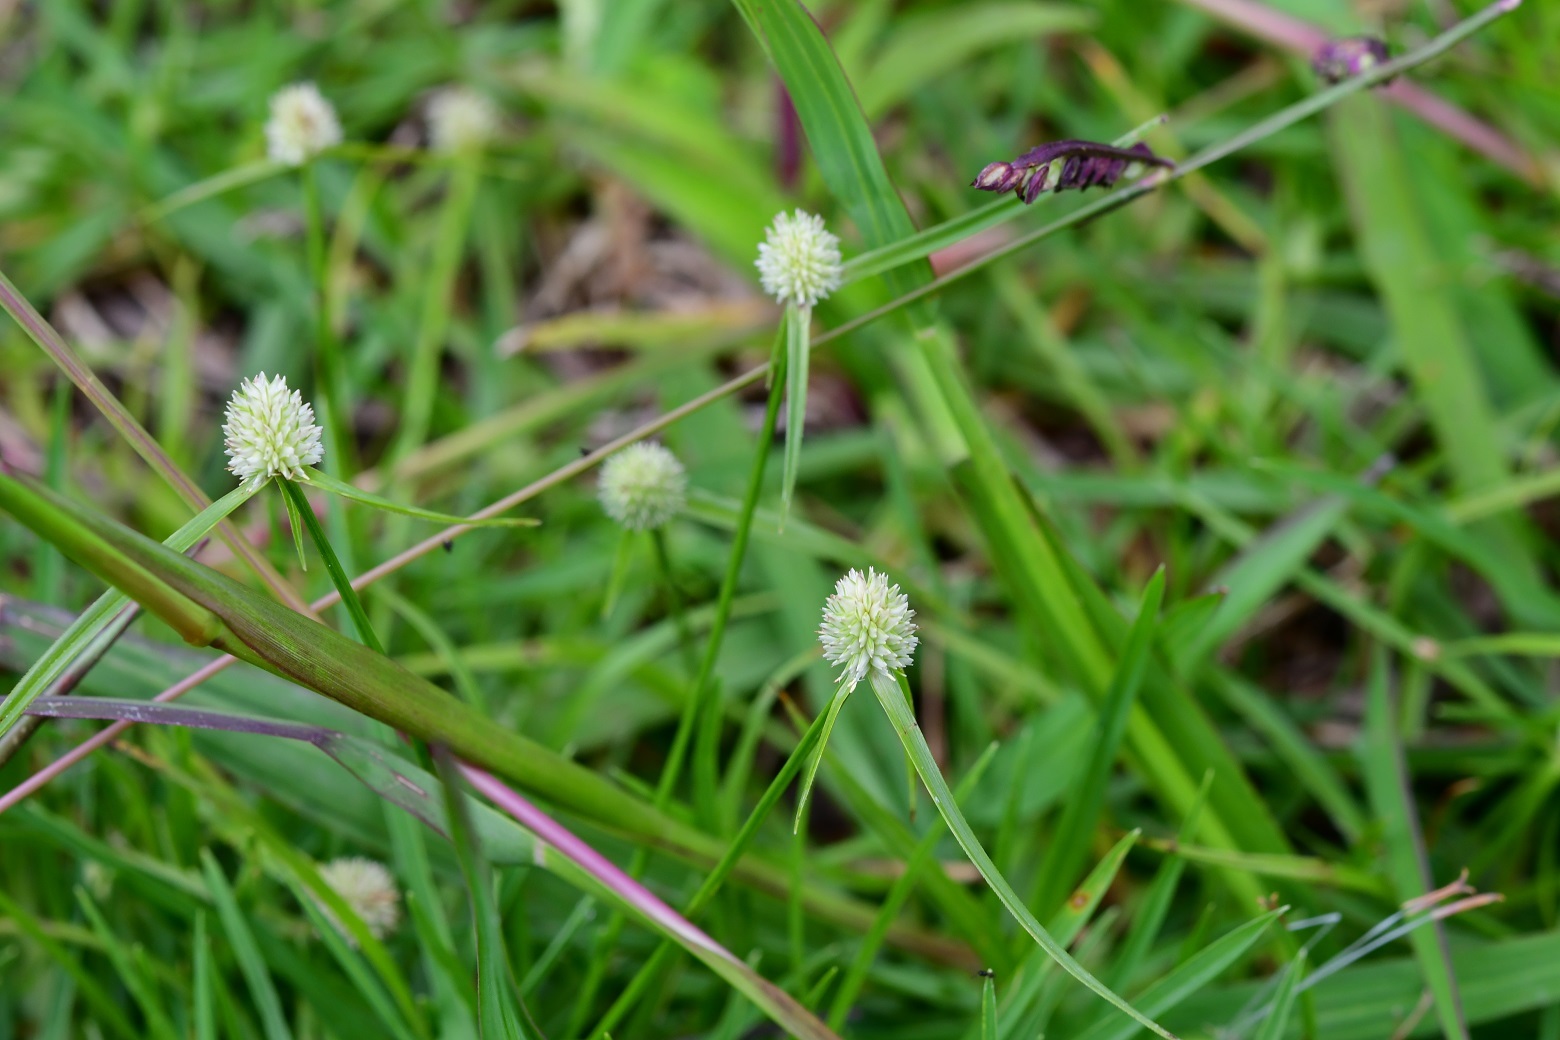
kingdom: Plantae
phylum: Tracheophyta
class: Liliopsida
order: Poales
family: Cyperaceae
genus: Cyperus
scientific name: Cyperus sesquiflorus
